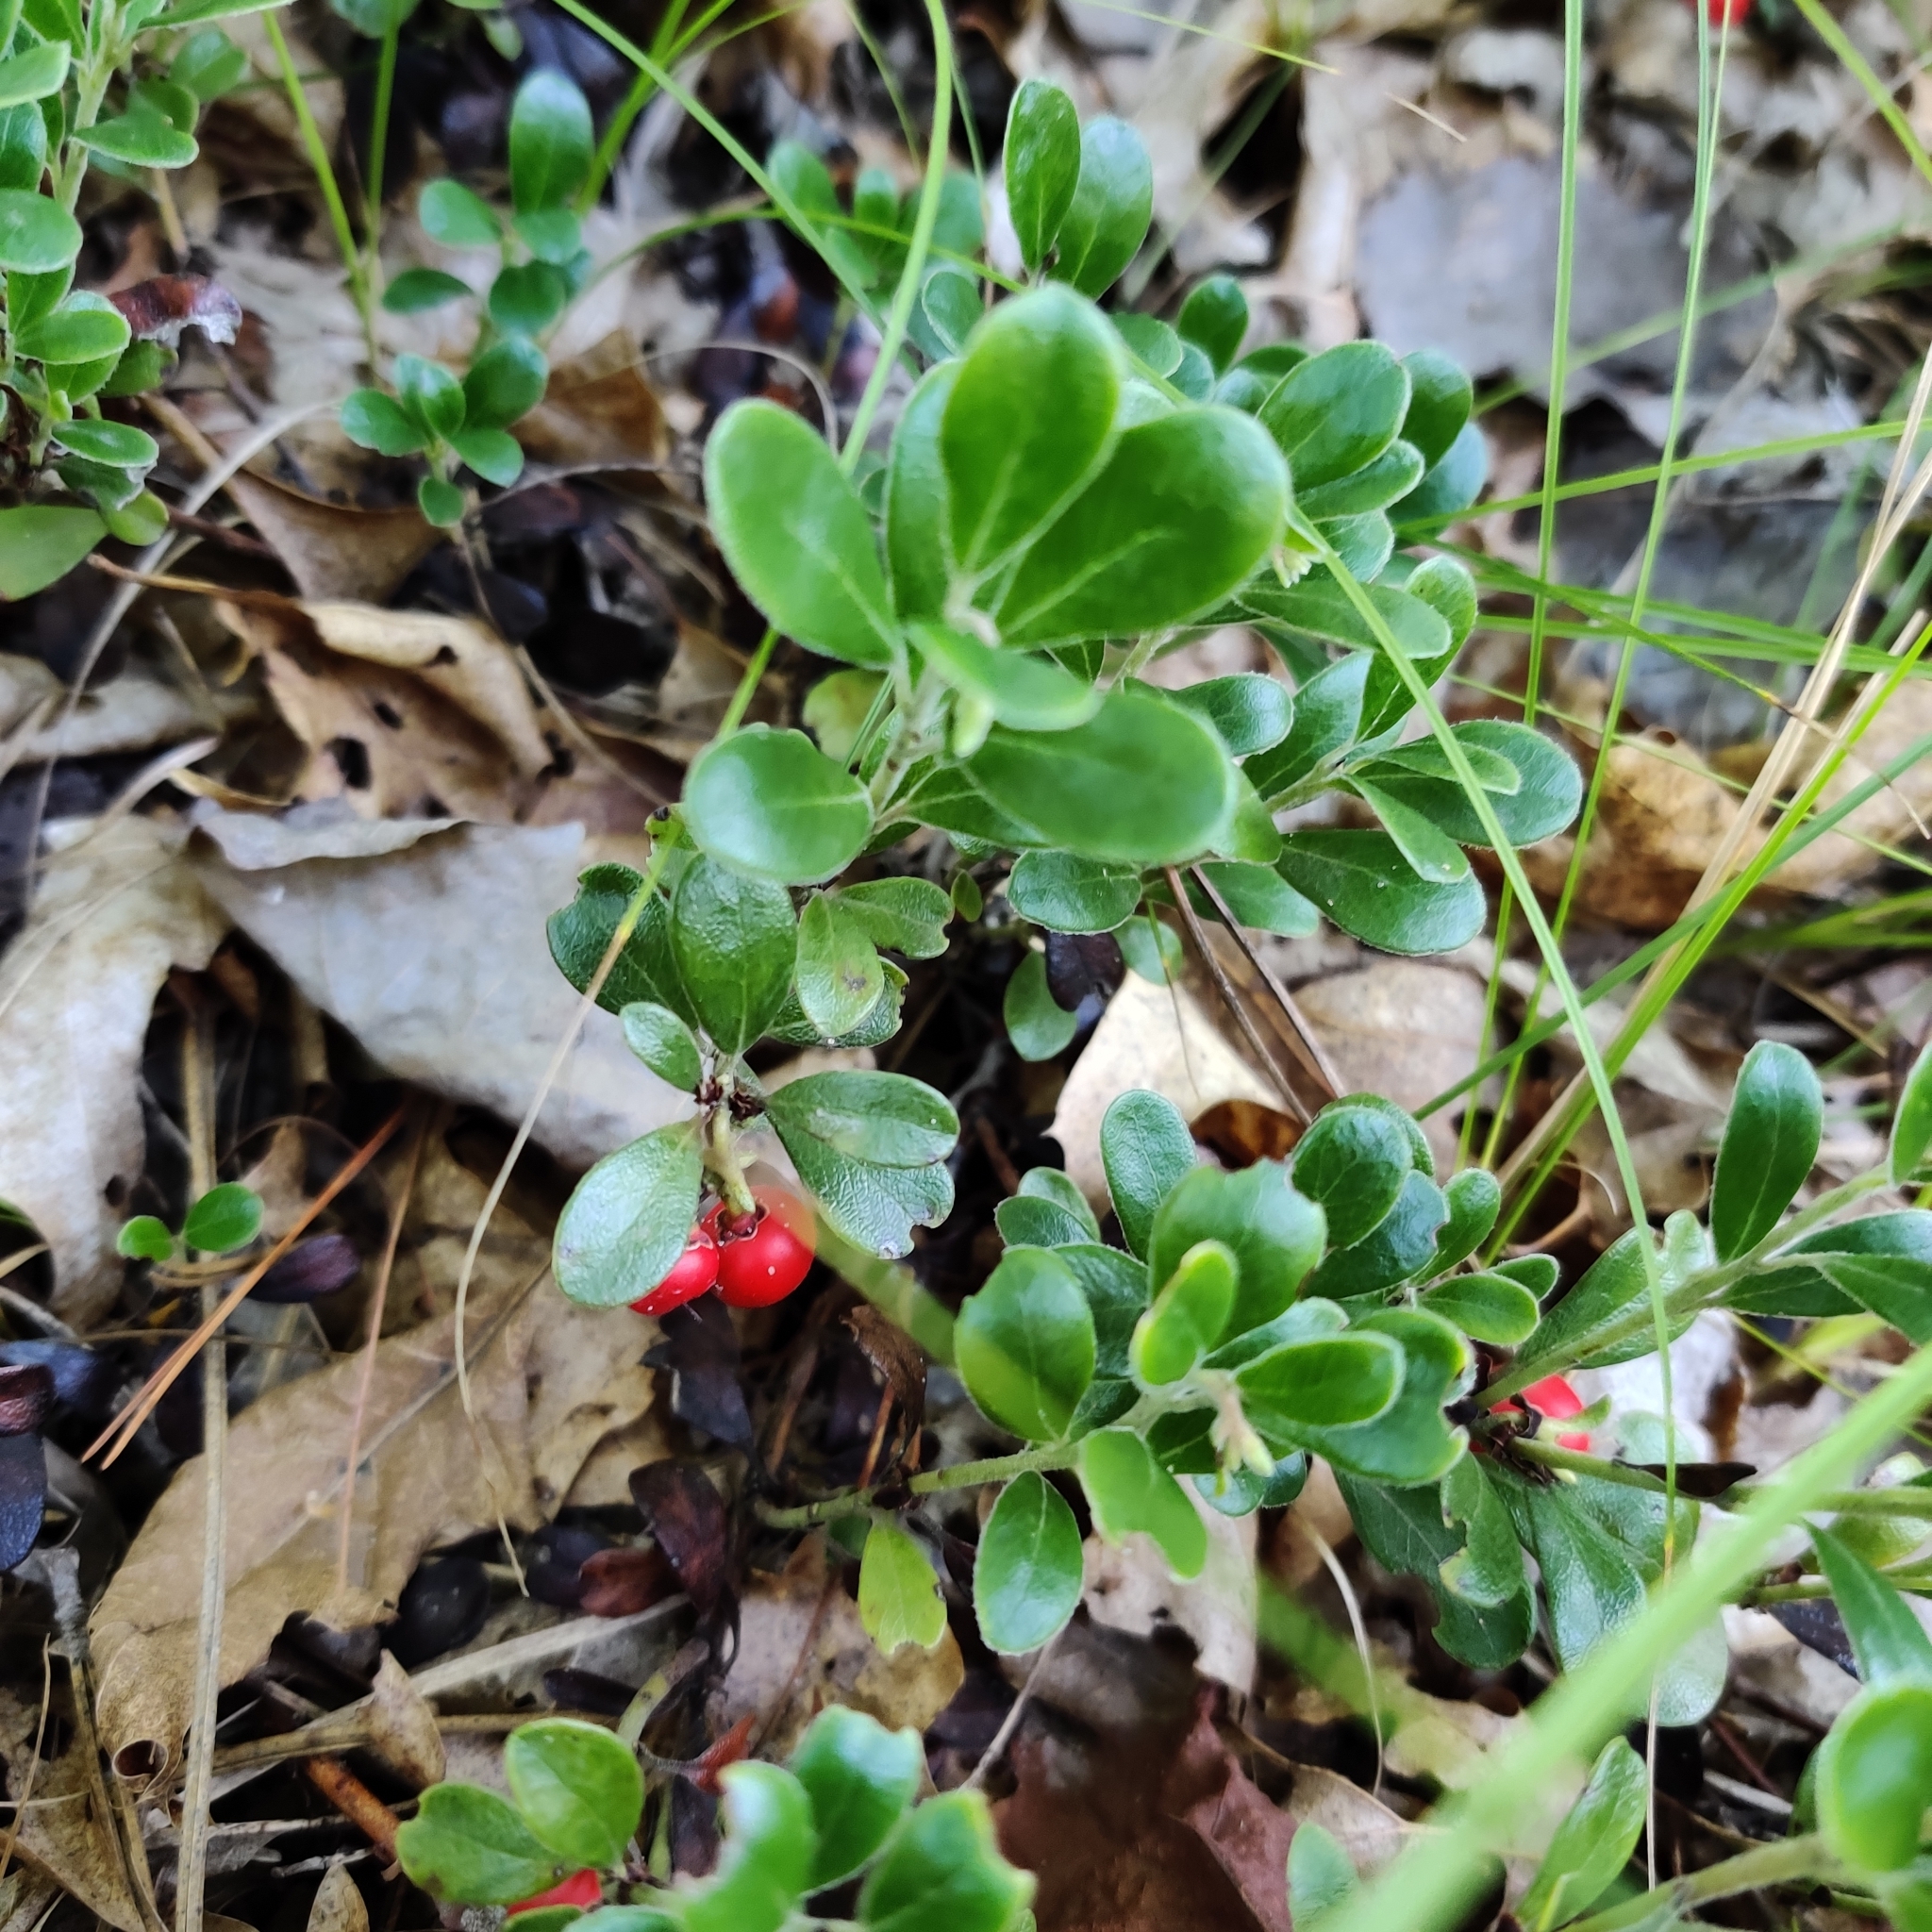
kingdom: Plantae
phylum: Tracheophyta
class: Magnoliopsida
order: Ericales
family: Ericaceae
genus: Arctostaphylos
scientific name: Arctostaphylos uva-ursi
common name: Bearberry
